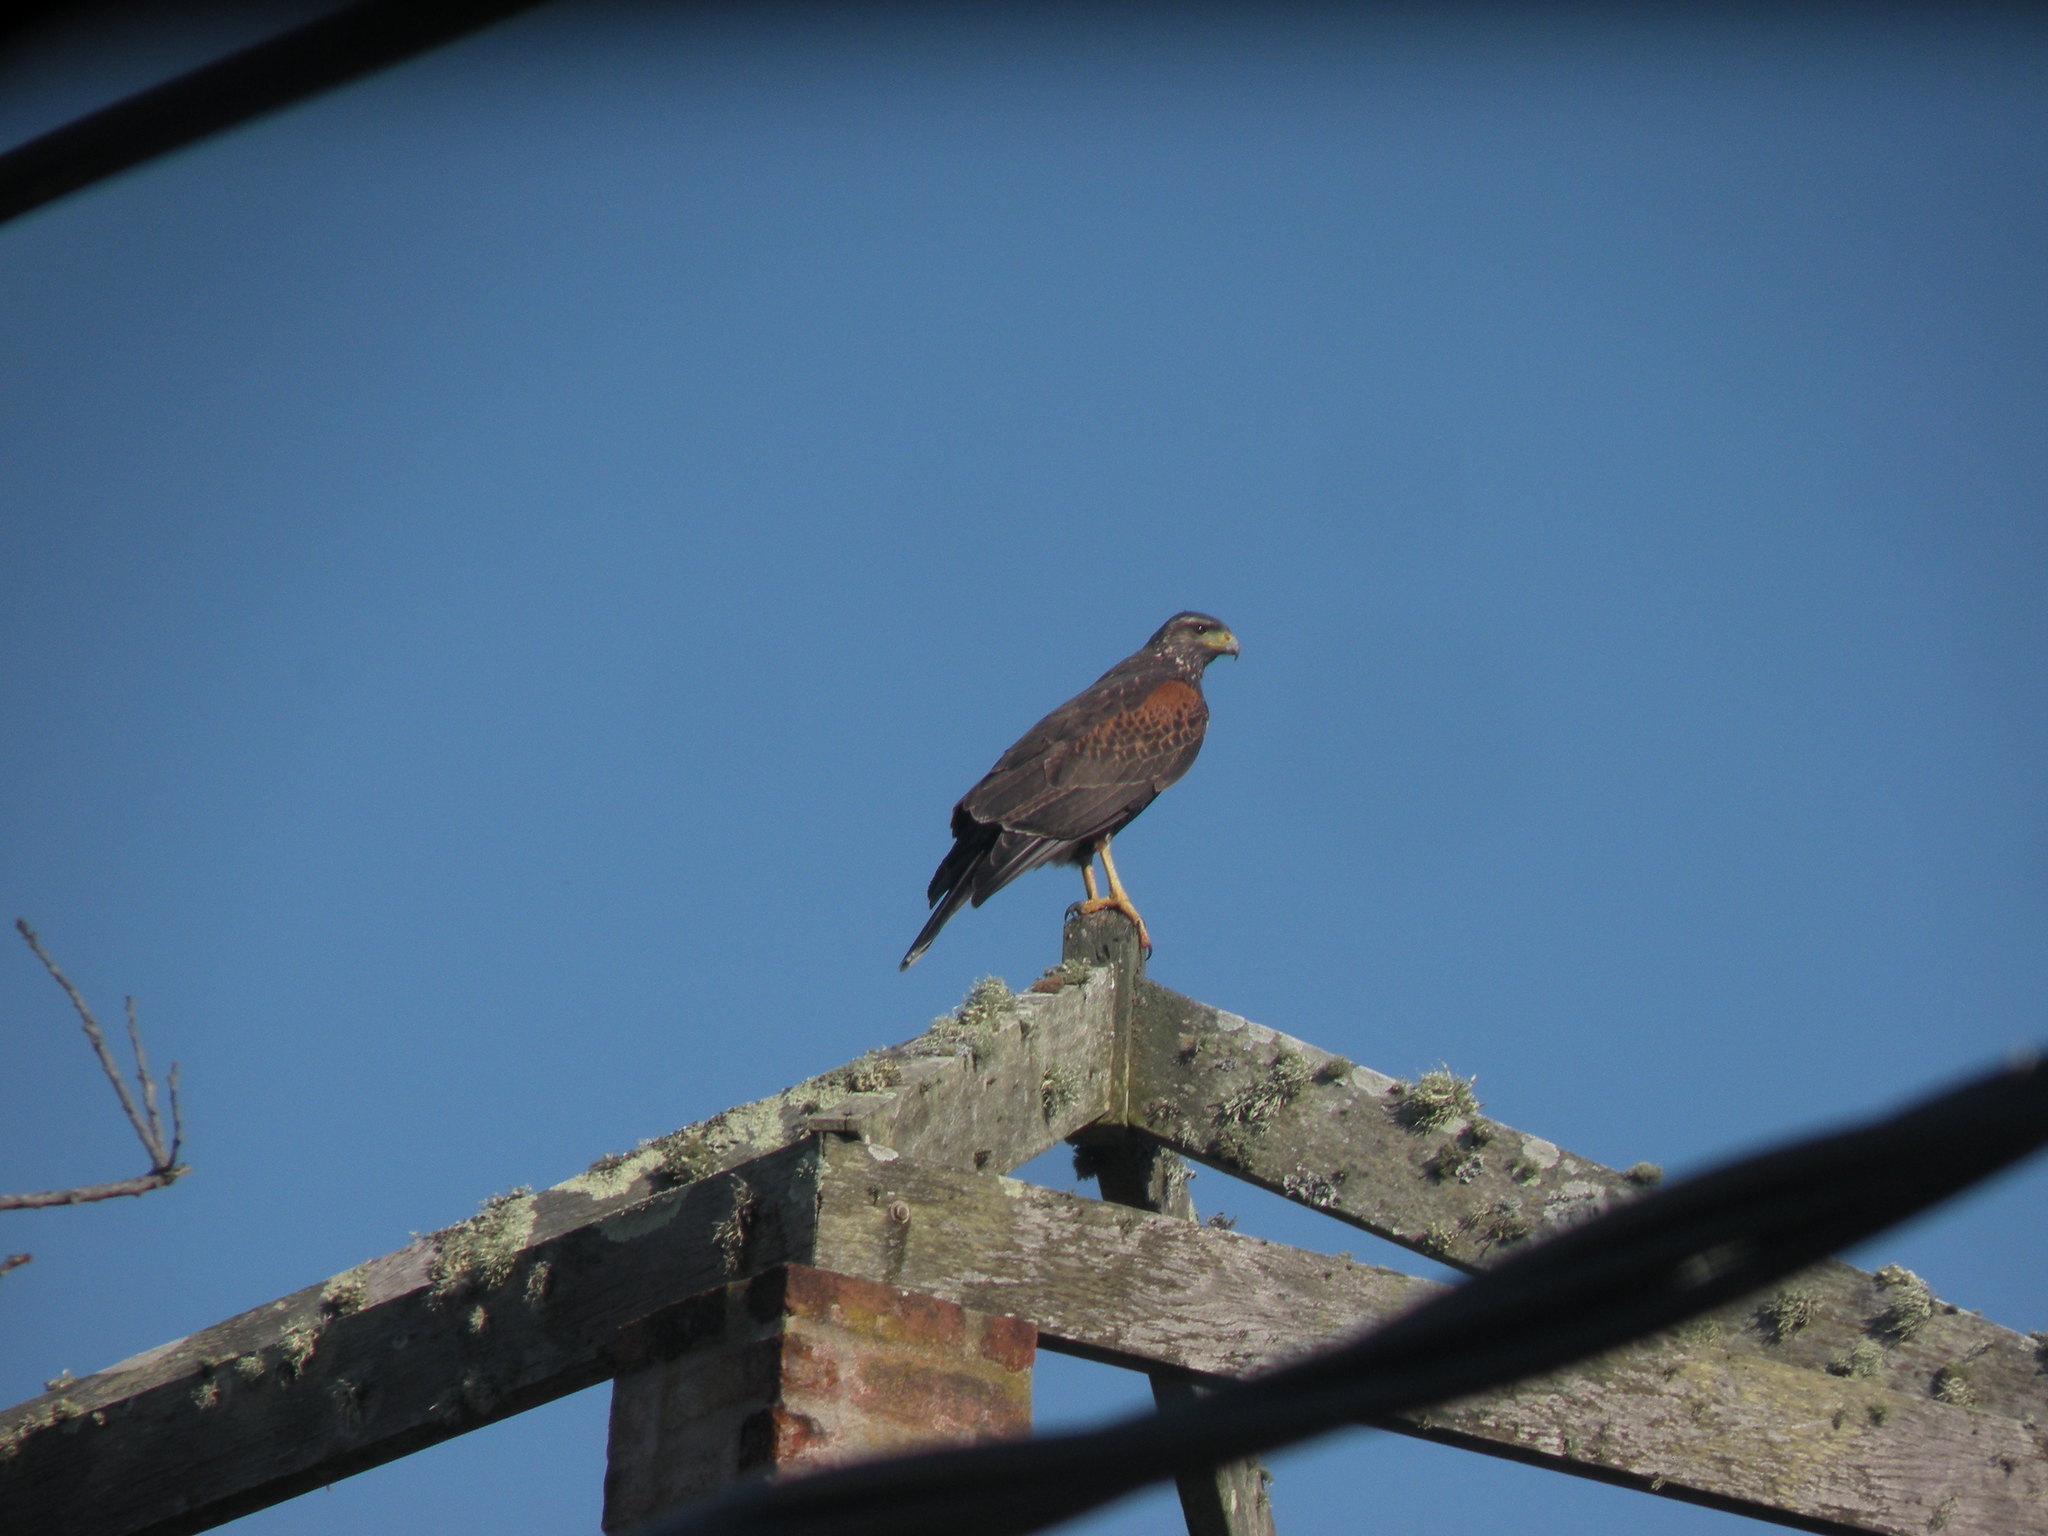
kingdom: Animalia
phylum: Chordata
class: Aves
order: Accipitriformes
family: Accipitridae
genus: Parabuteo
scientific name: Parabuteo unicinctus
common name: Harris's hawk
